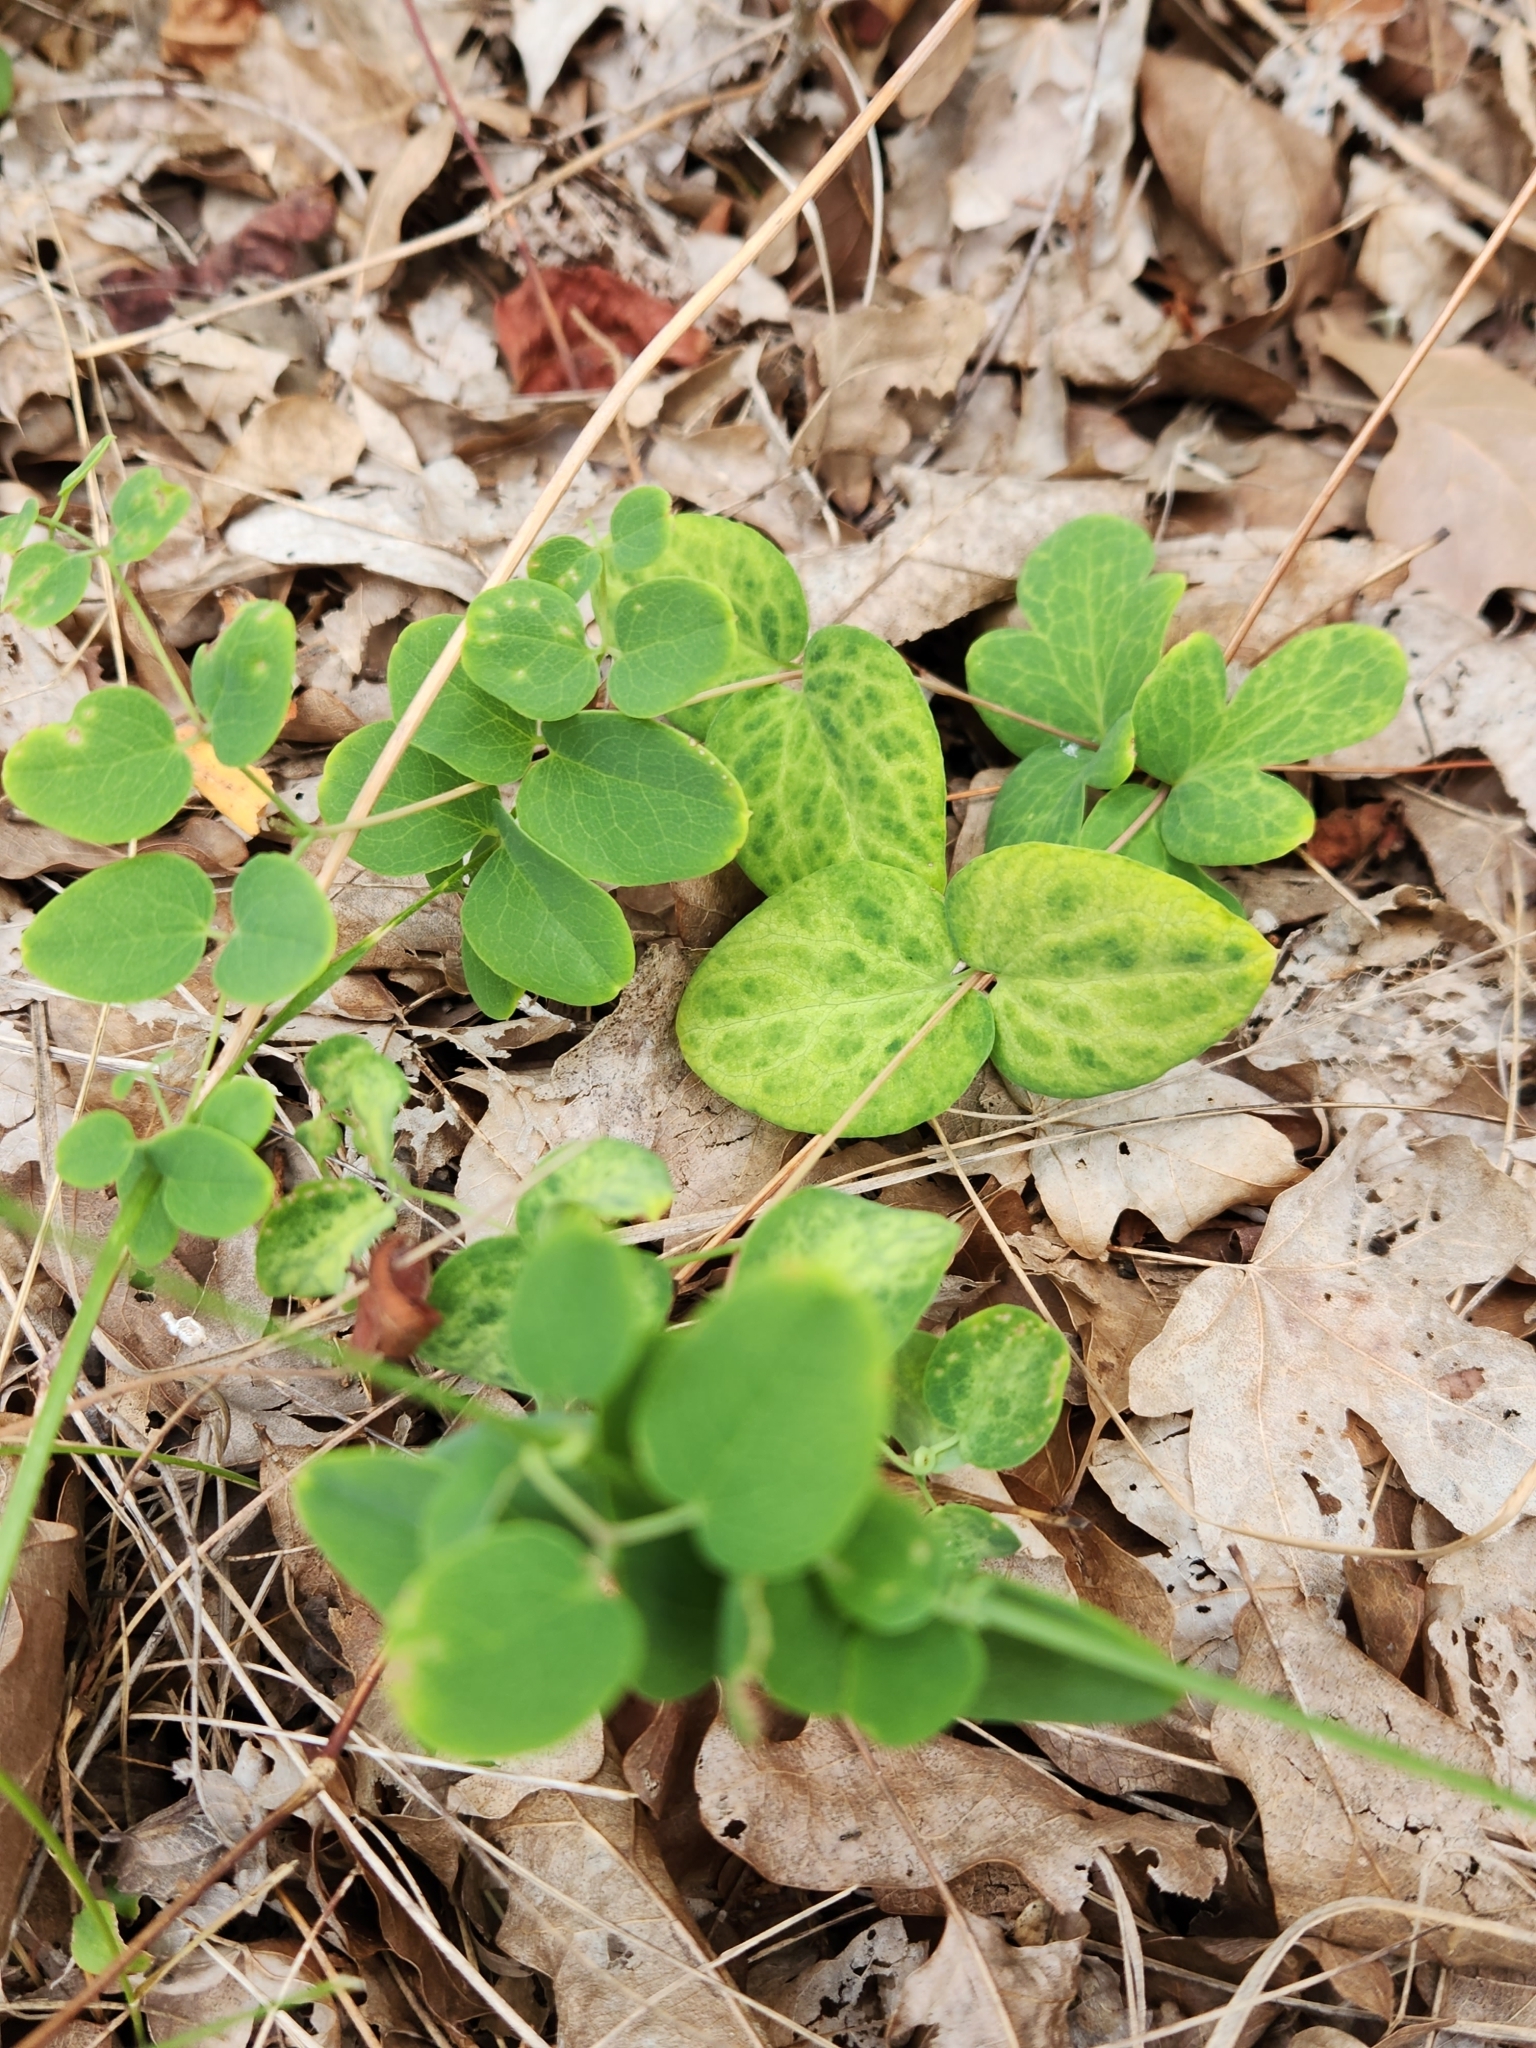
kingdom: Plantae
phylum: Tracheophyta
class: Magnoliopsida
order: Ranunculales
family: Ranunculaceae
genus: Clematis
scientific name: Clematis texensis
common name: Crimson clematis
